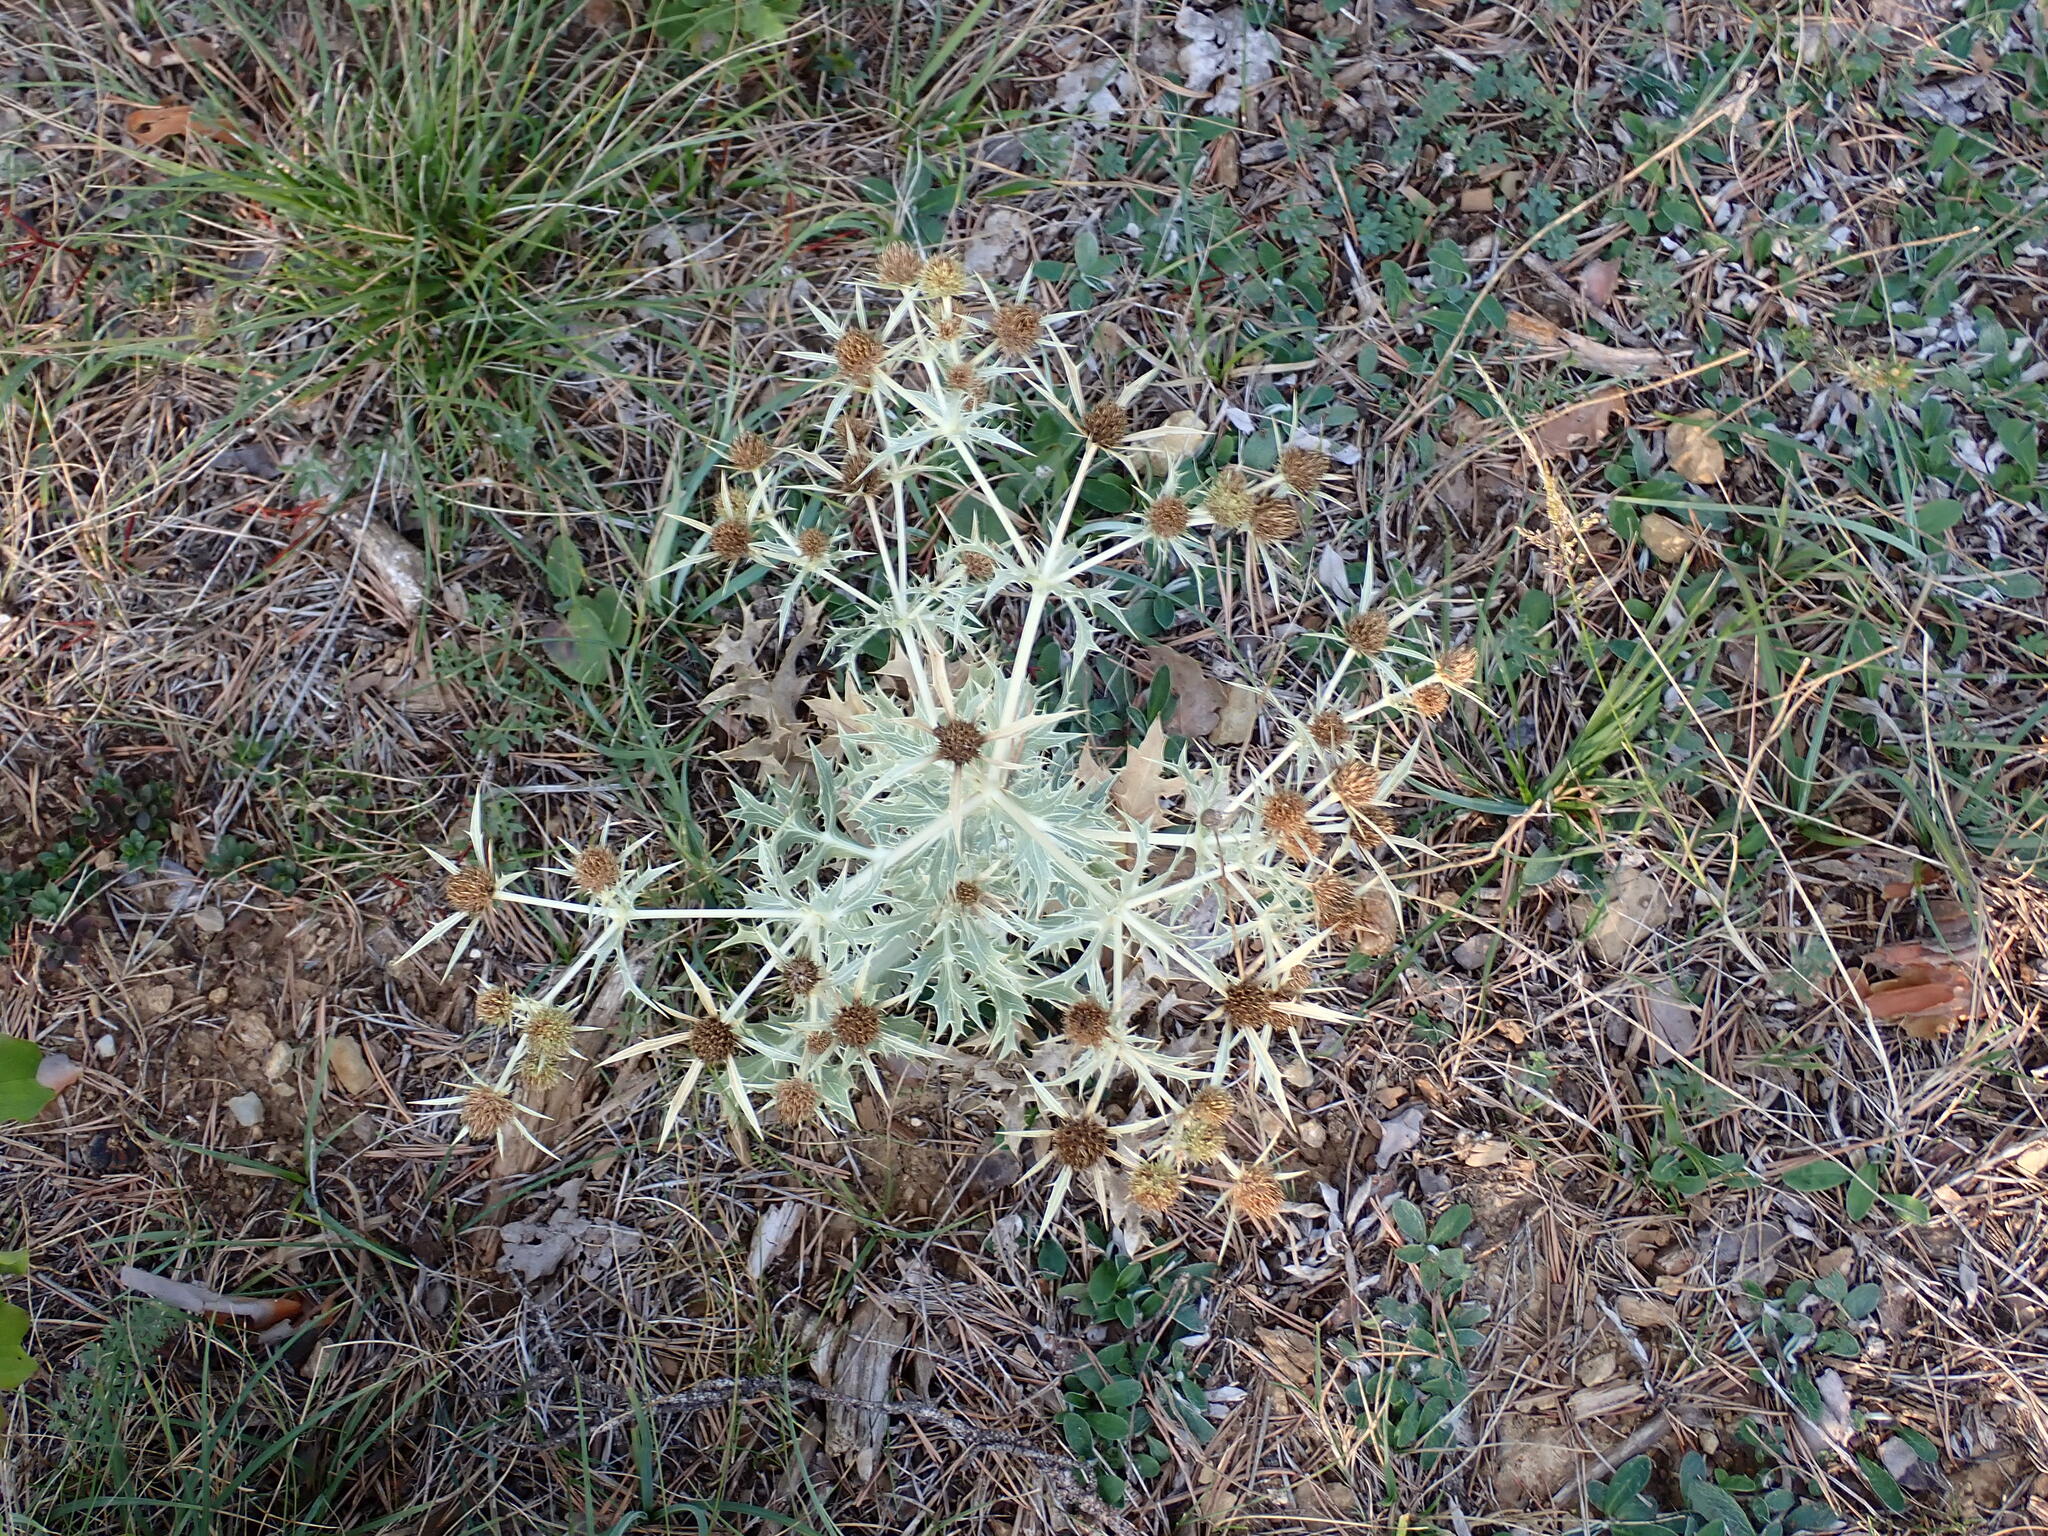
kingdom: Plantae
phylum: Tracheophyta
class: Magnoliopsida
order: Apiales
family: Apiaceae
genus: Eryngium
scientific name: Eryngium campestre
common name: Field eryngo
